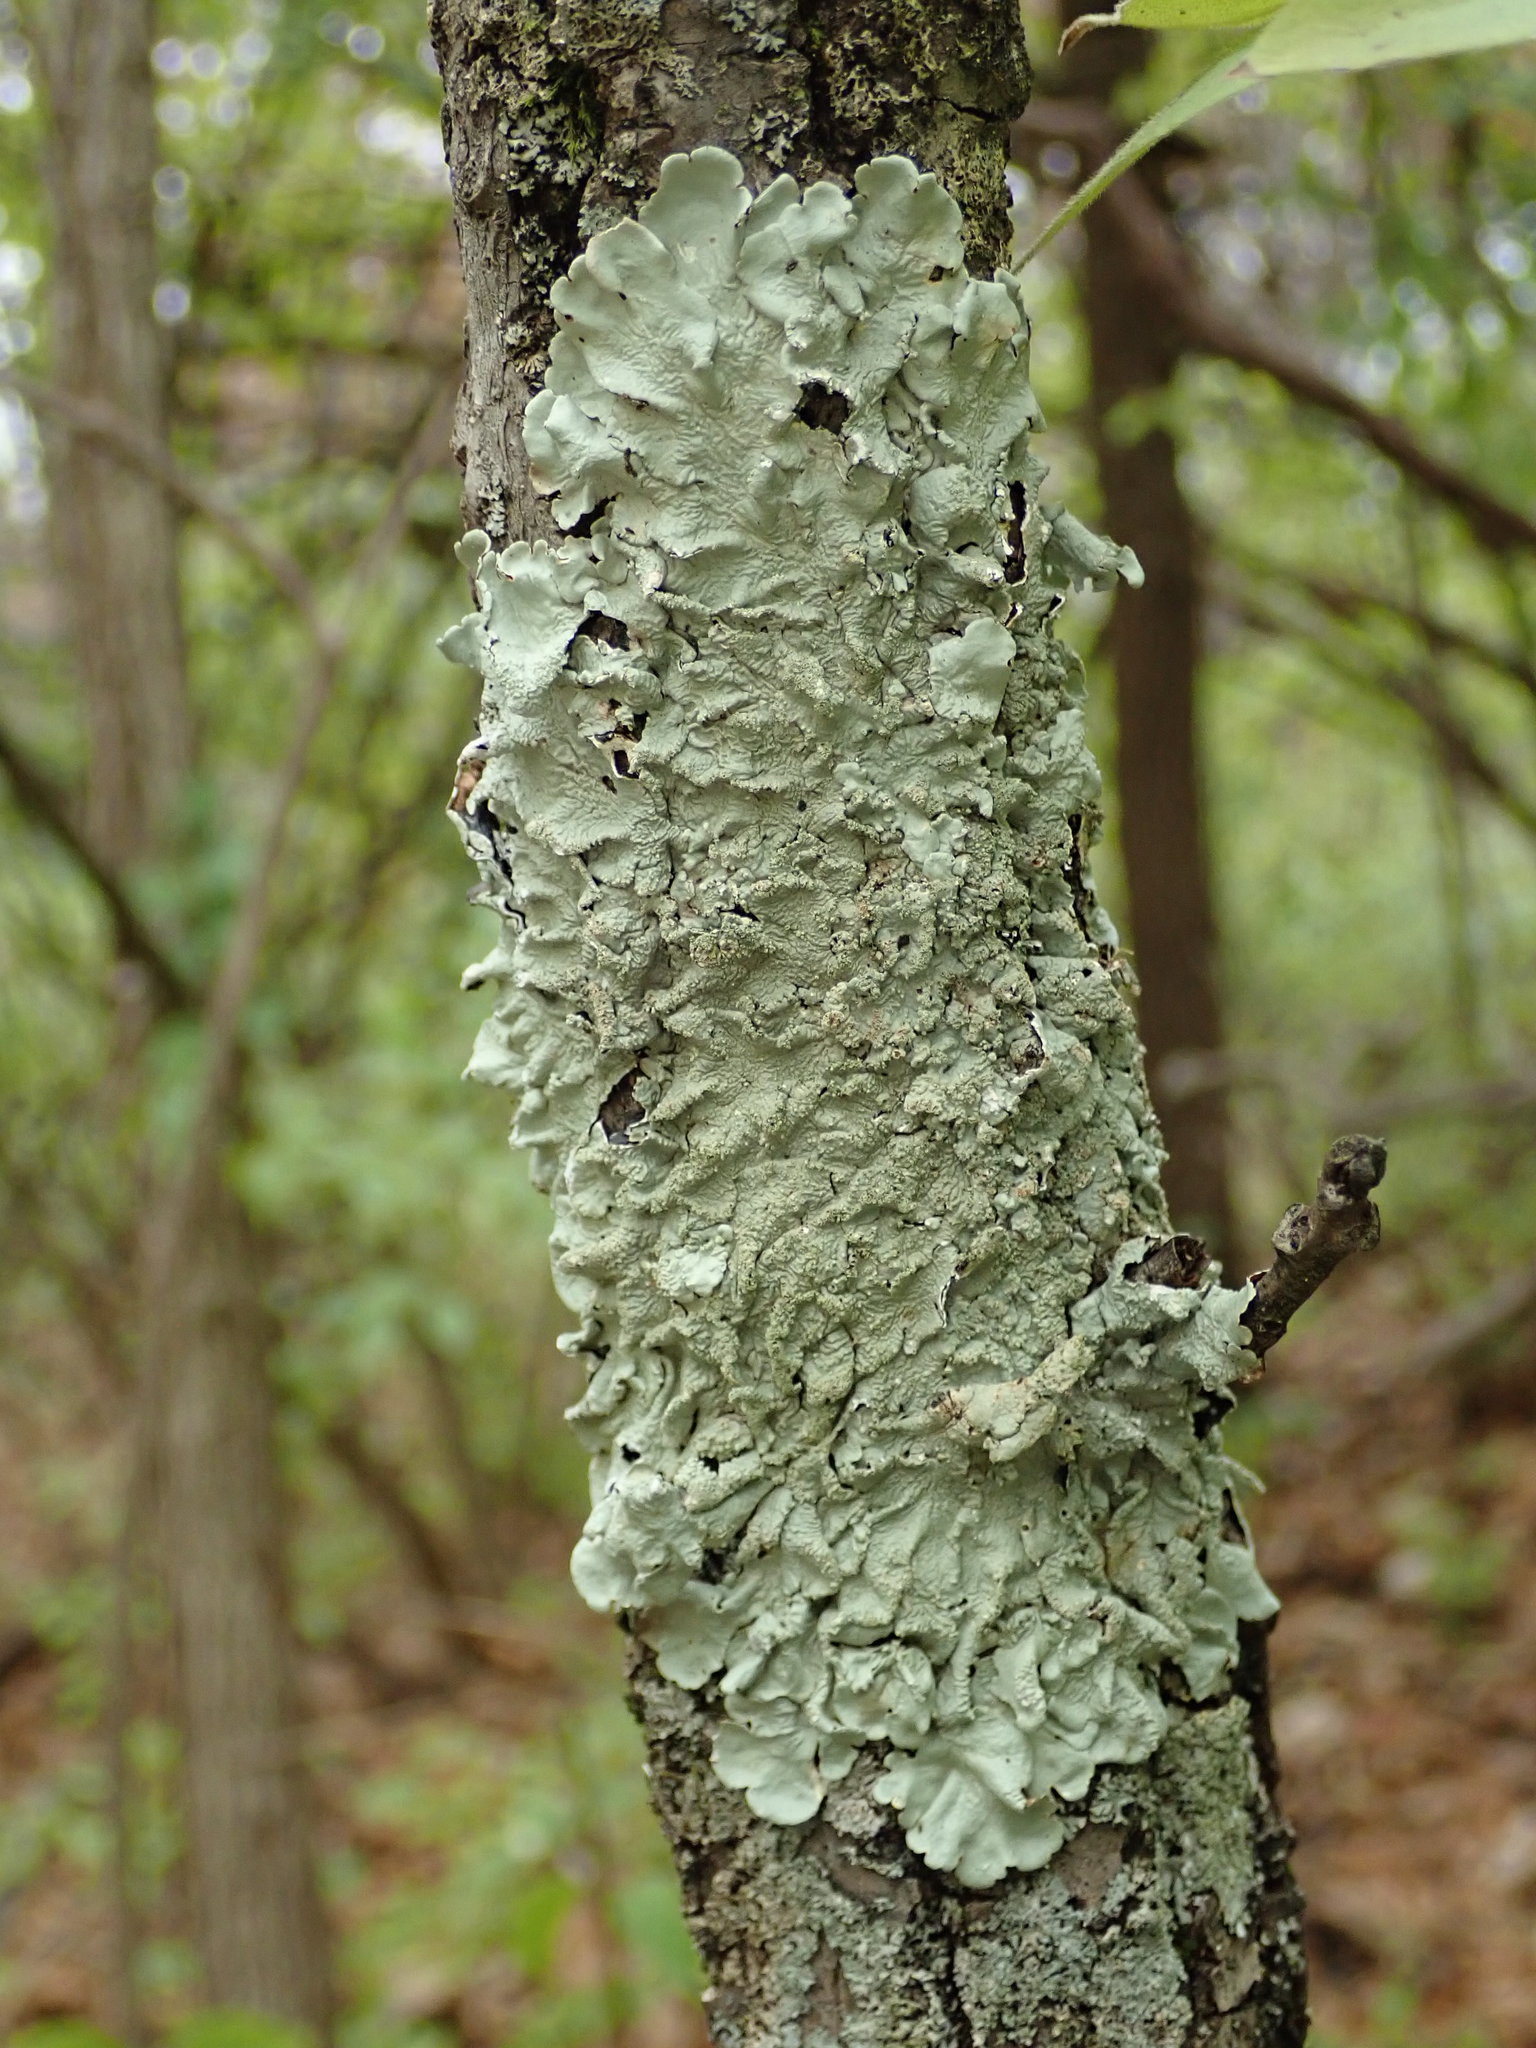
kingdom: Fungi
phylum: Ascomycota
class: Lecanoromycetes
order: Lecanorales
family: Parmeliaceae
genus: Flavoparmelia
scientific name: Flavoparmelia caperata
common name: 40-mile per hour lichen
